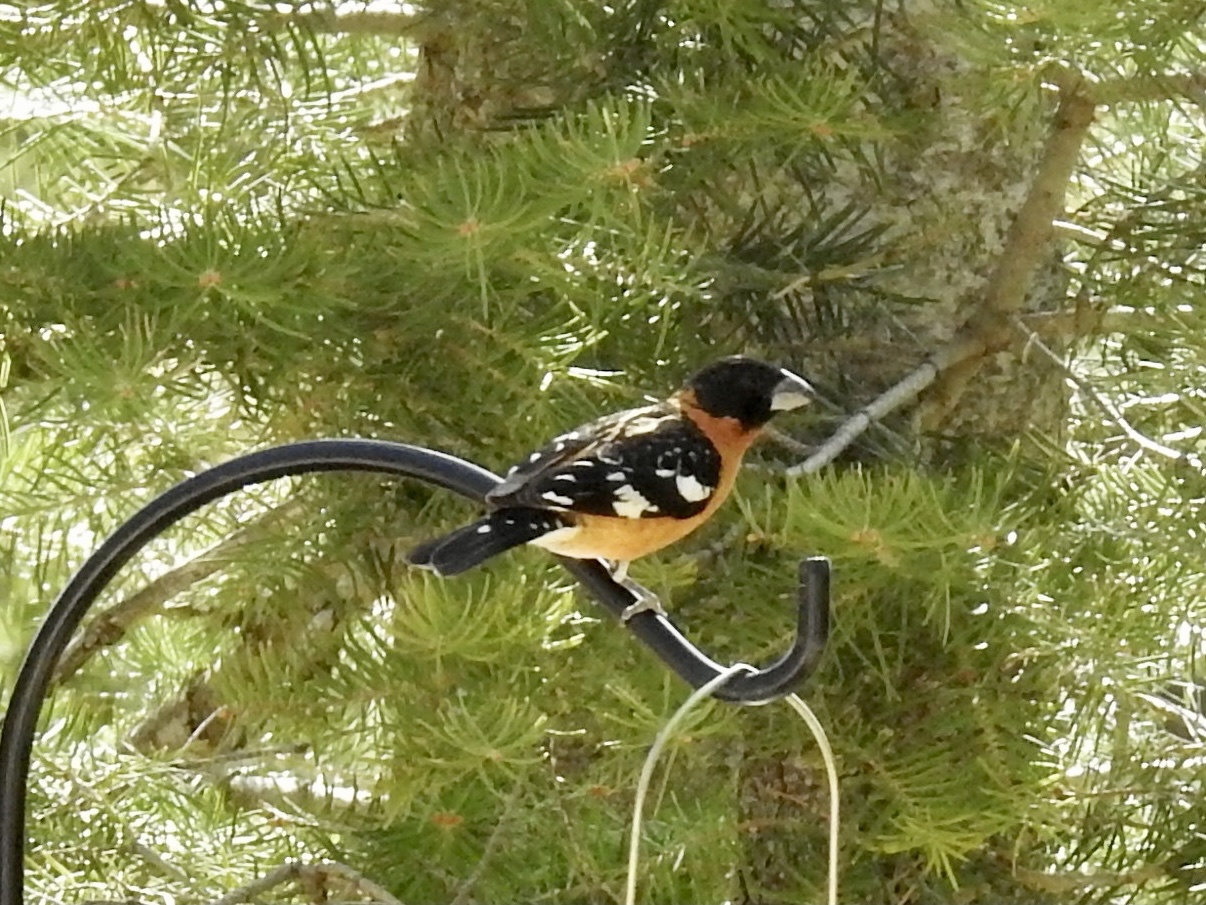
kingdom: Animalia
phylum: Chordata
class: Aves
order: Passeriformes
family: Cardinalidae
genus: Pheucticus
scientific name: Pheucticus melanocephalus
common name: Black-headed grosbeak
